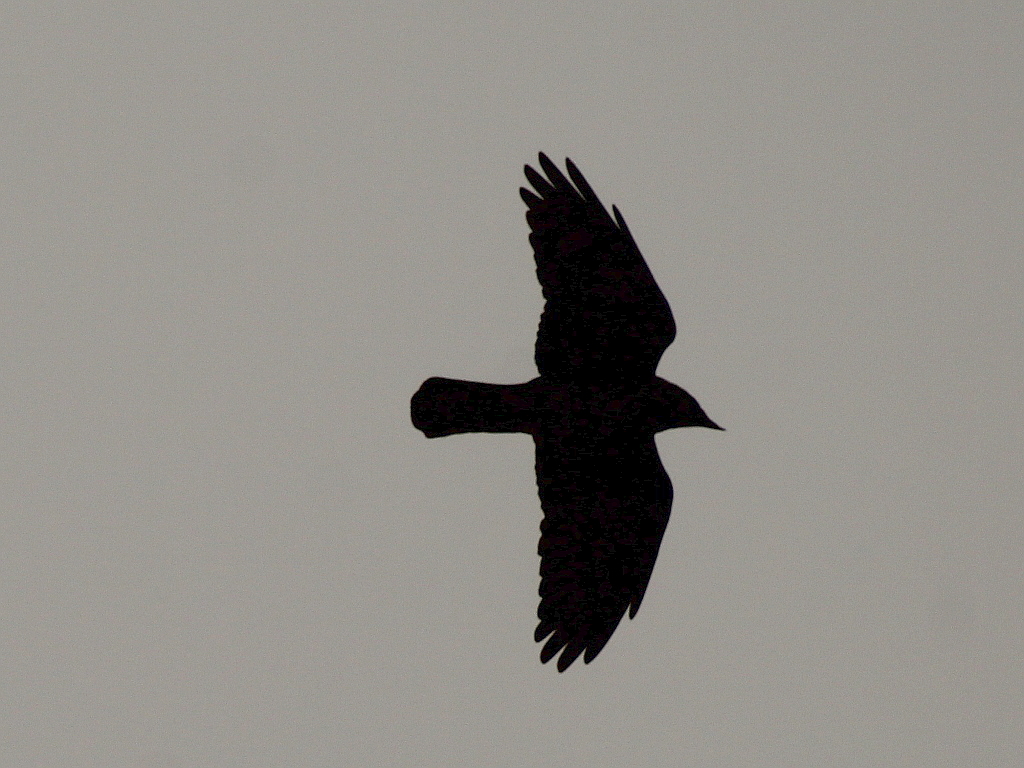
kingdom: Animalia
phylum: Chordata
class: Aves
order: Passeriformes
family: Corvidae
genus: Coloeus
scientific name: Coloeus monedula
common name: Western jackdaw
